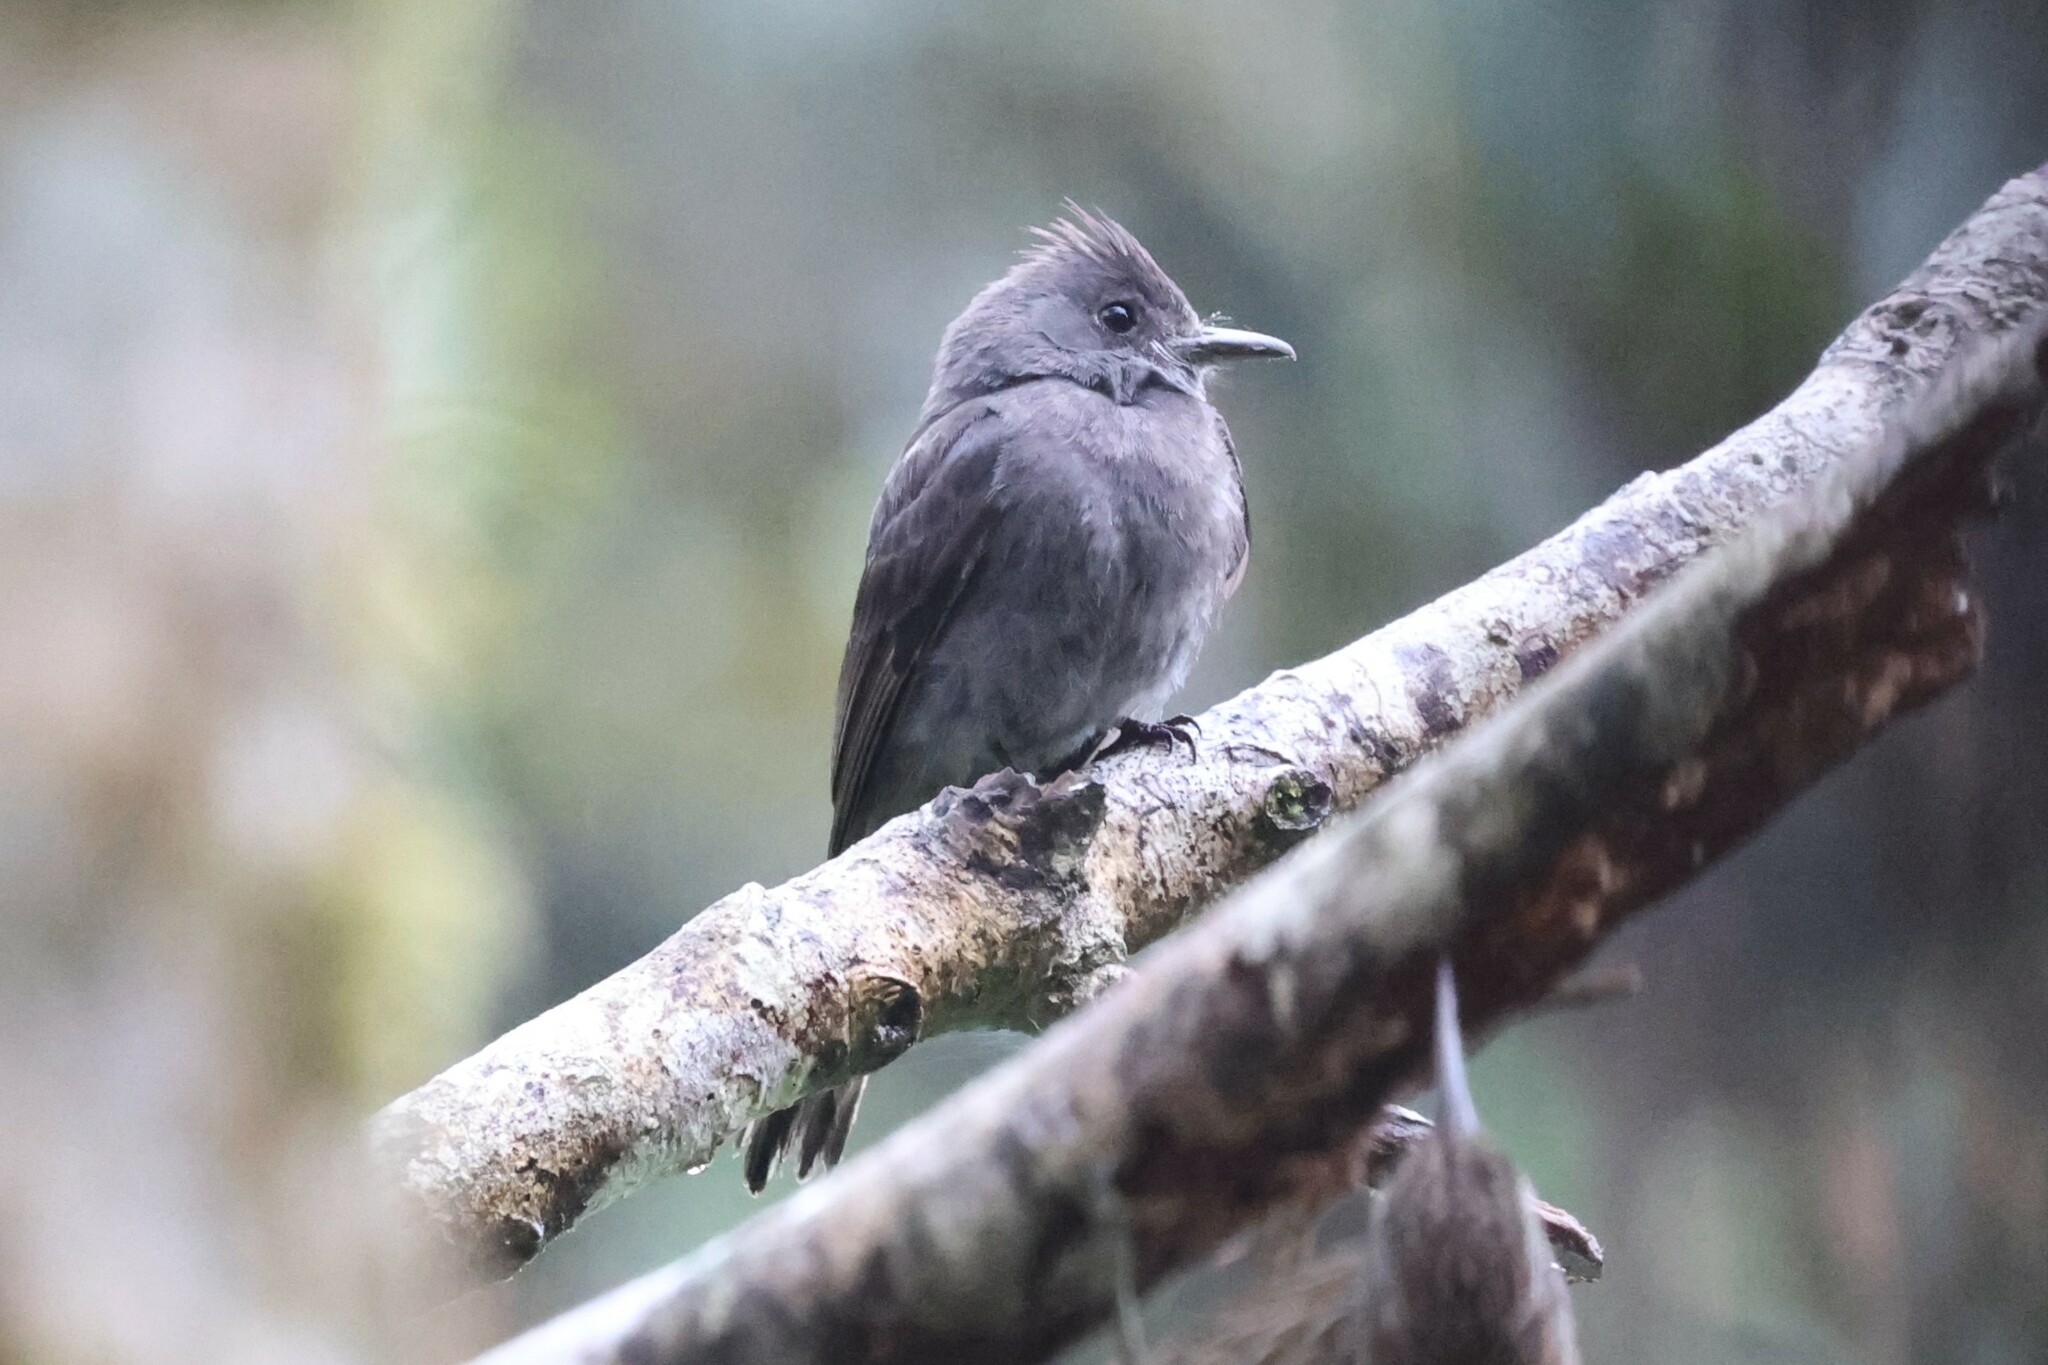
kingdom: Animalia
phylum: Chordata
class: Aves
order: Passeriformes
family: Tyrannidae
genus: Contopus
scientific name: Contopus fumigatus
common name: Smoke-colored pewee
